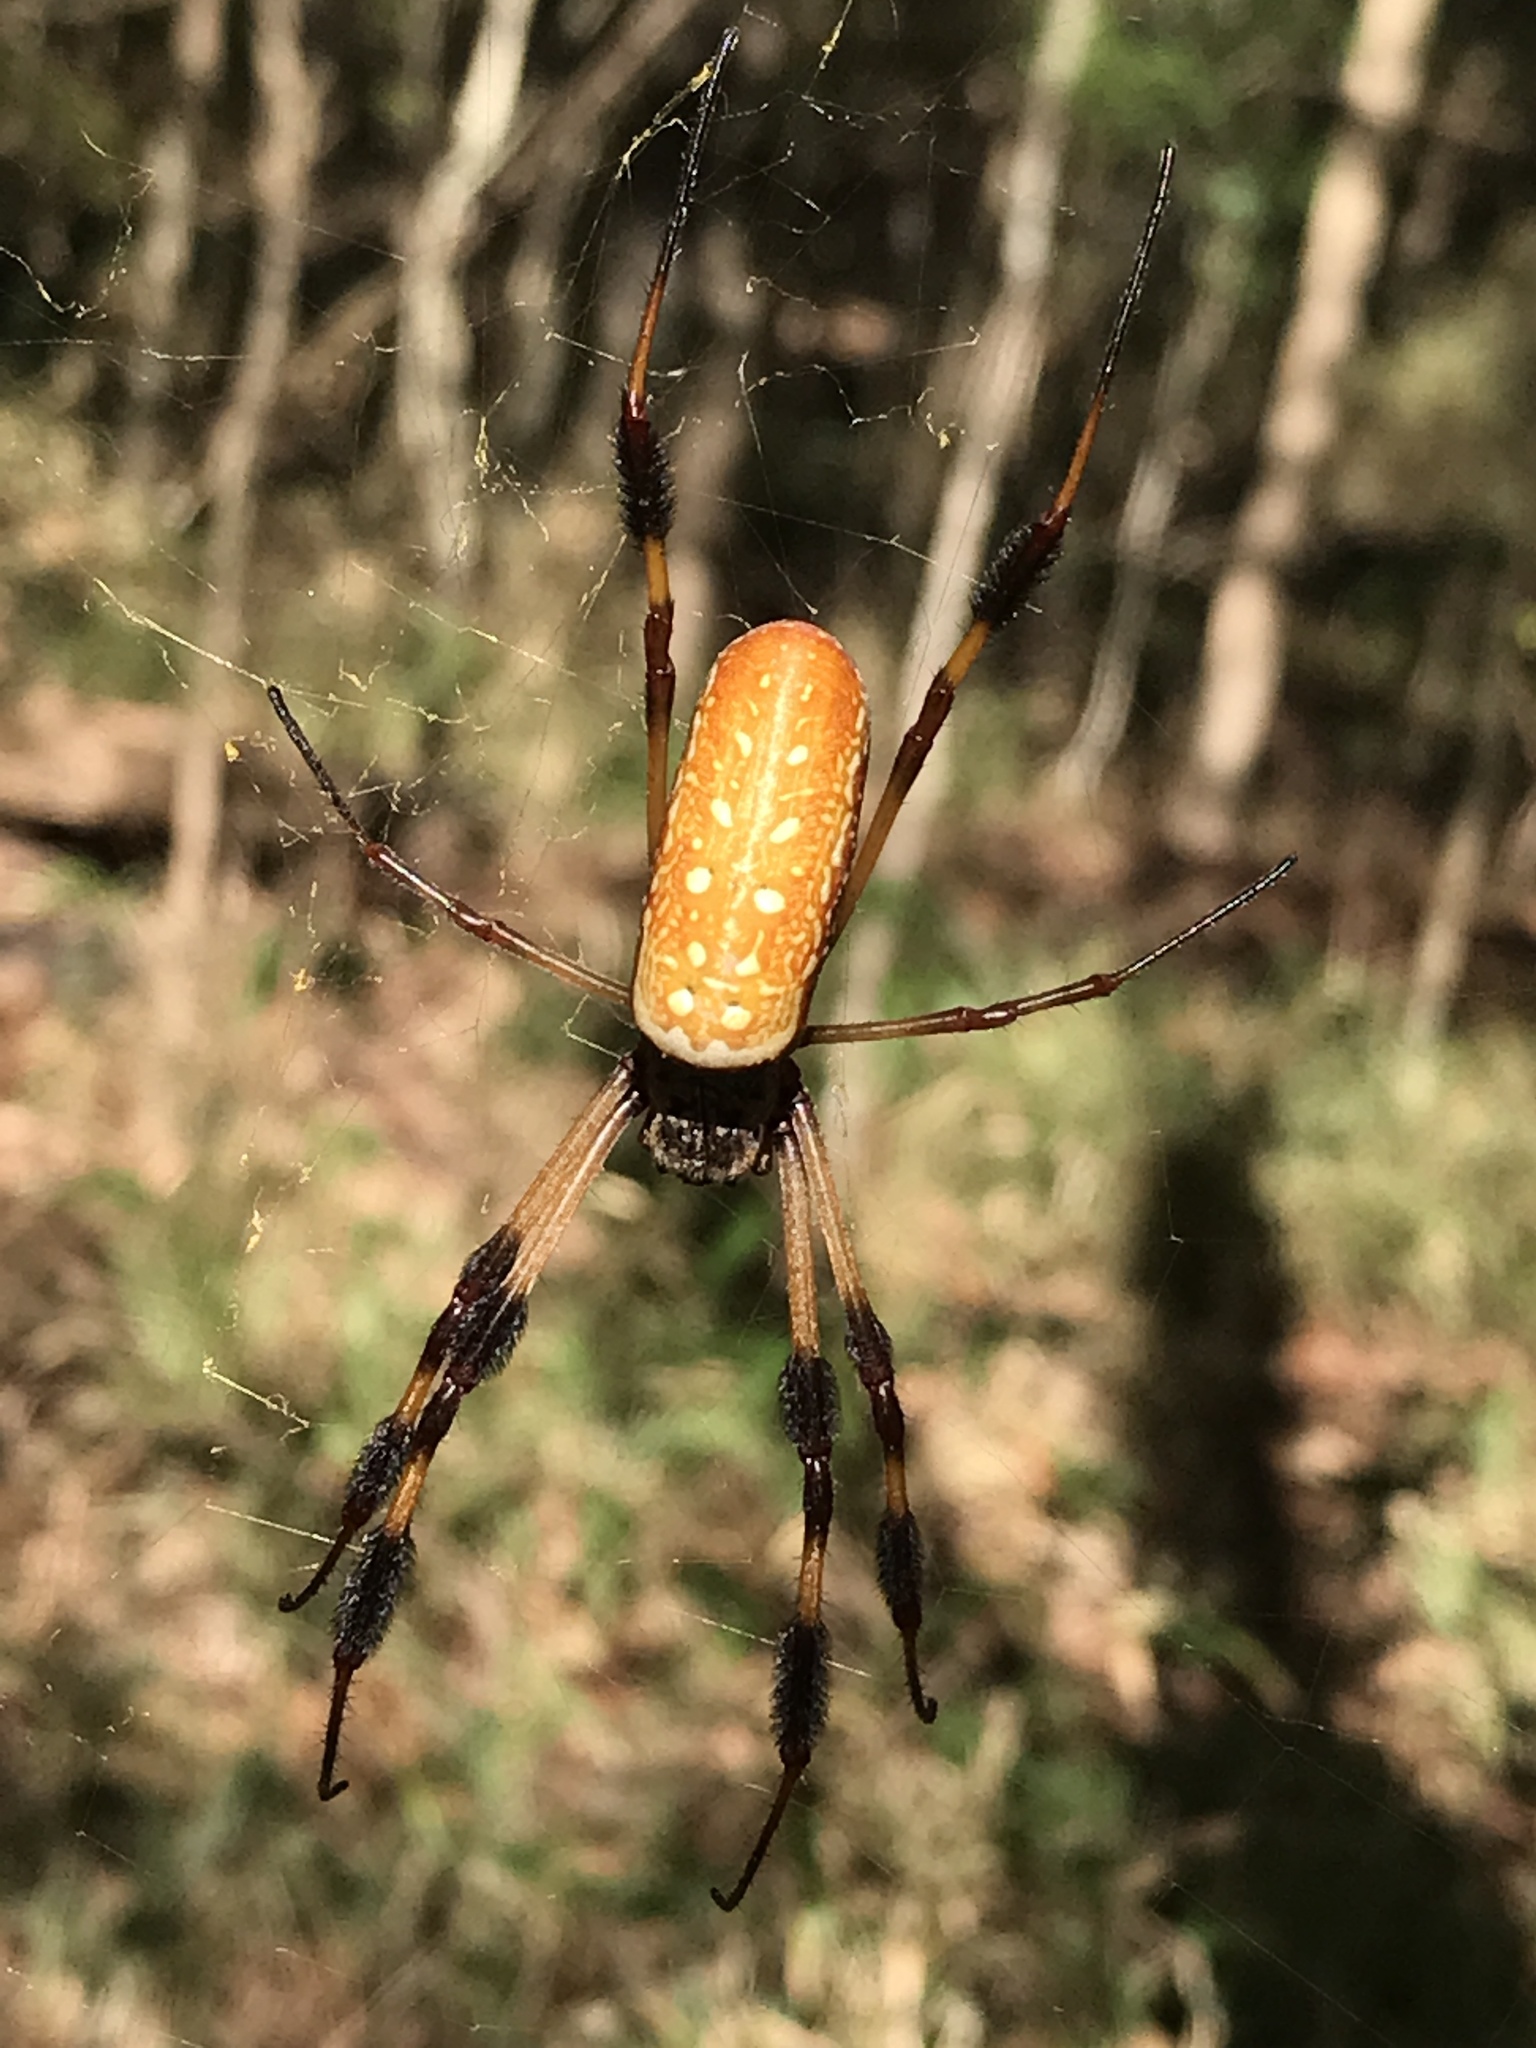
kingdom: Animalia
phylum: Arthropoda
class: Arachnida
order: Araneae
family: Araneidae
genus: Trichonephila
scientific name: Trichonephila clavipes
